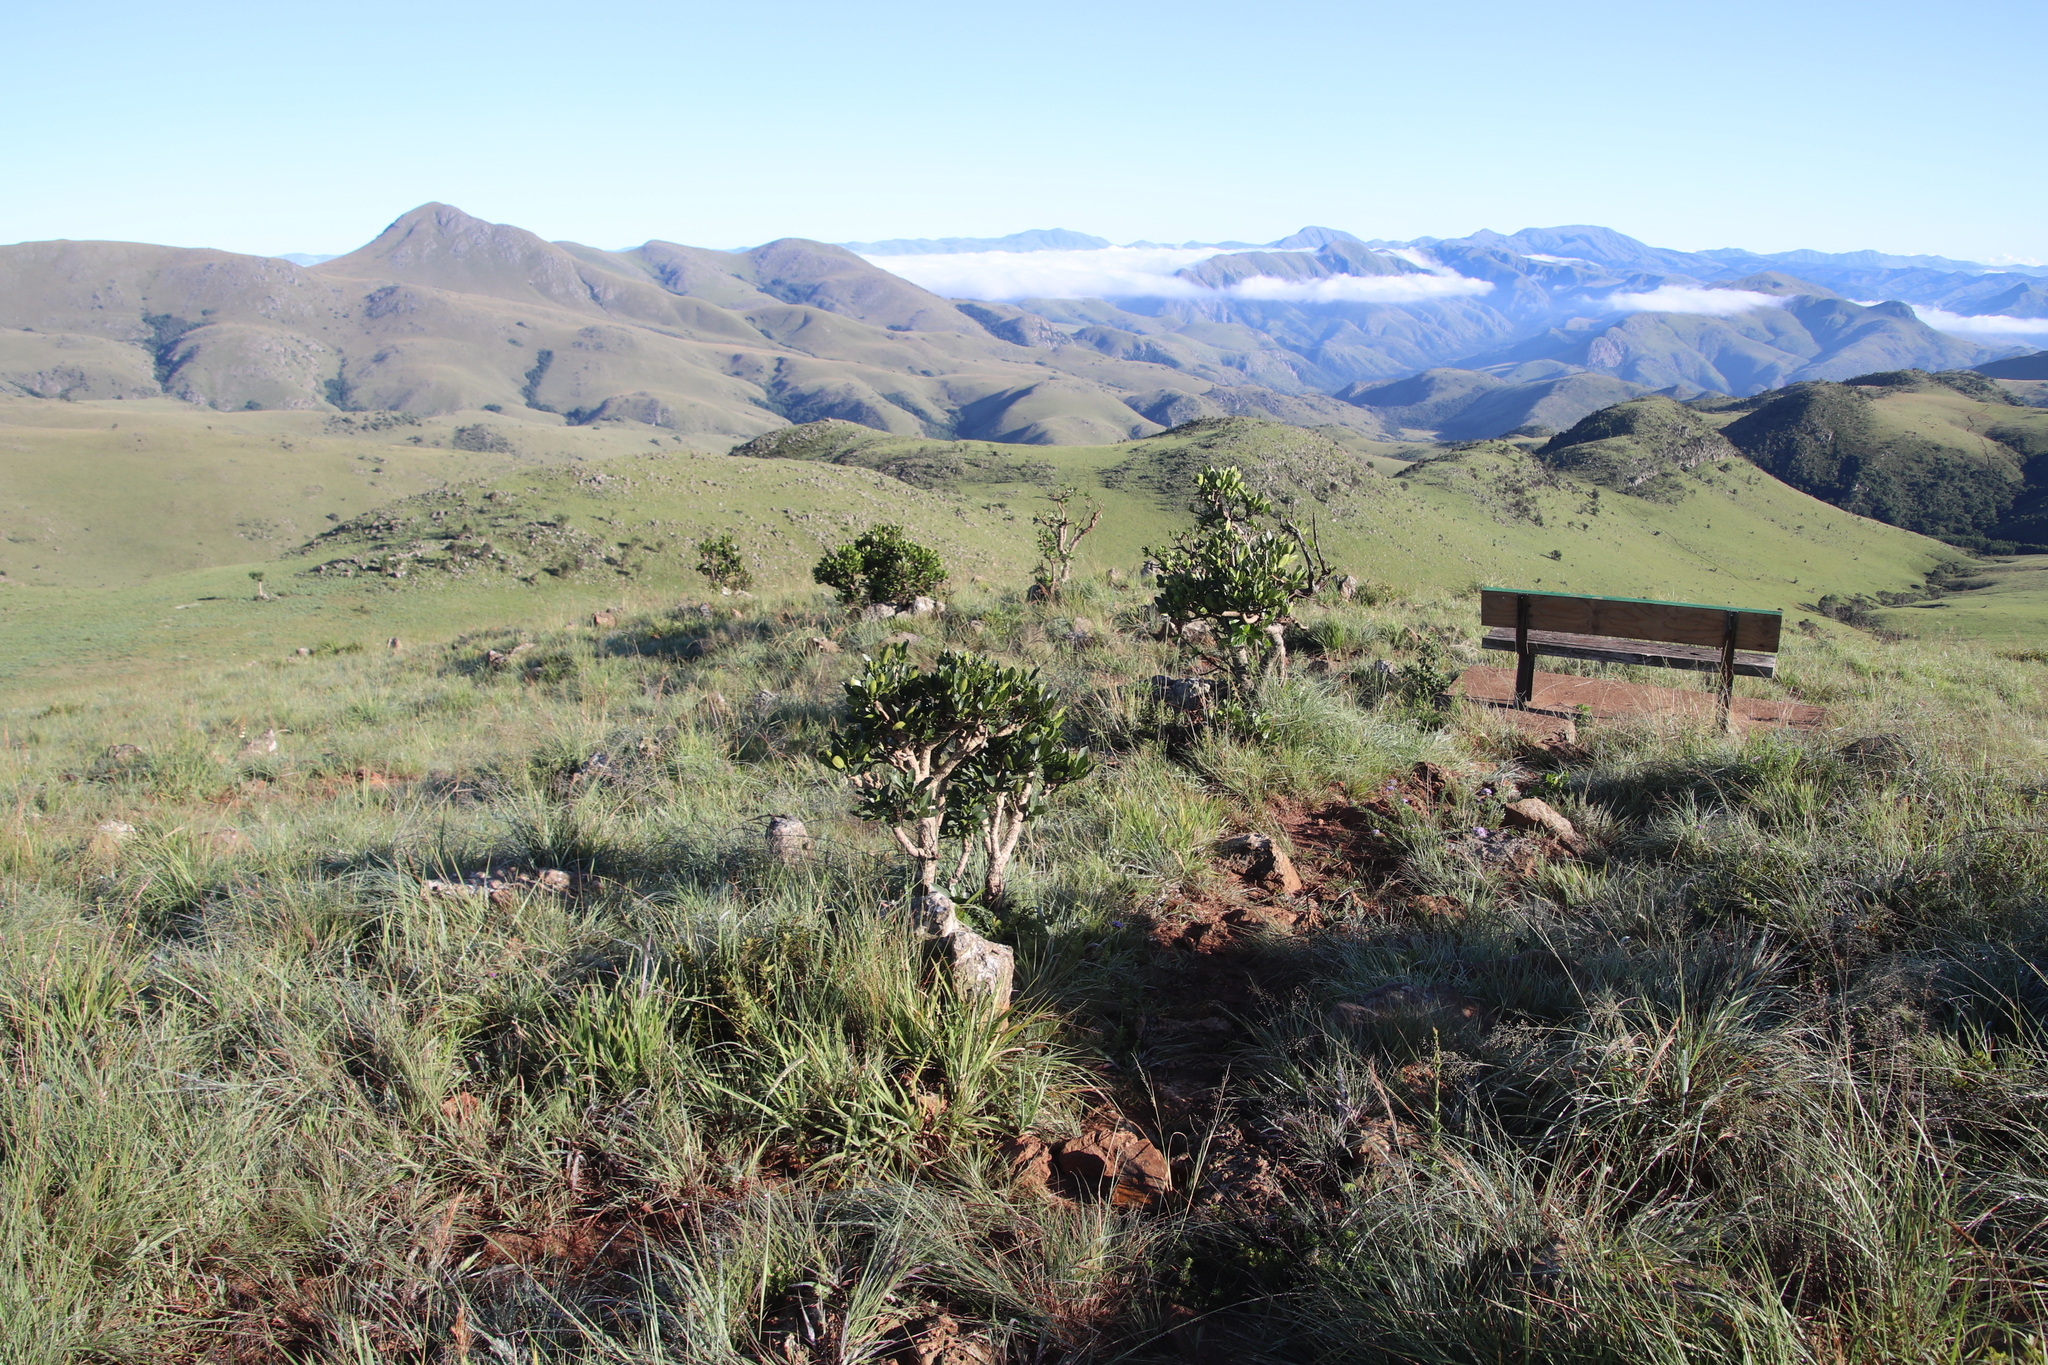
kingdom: Plantae
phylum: Tracheophyta
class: Magnoliopsida
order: Gentianales
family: Rubiaceae
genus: Psychotria
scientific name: Psychotria
